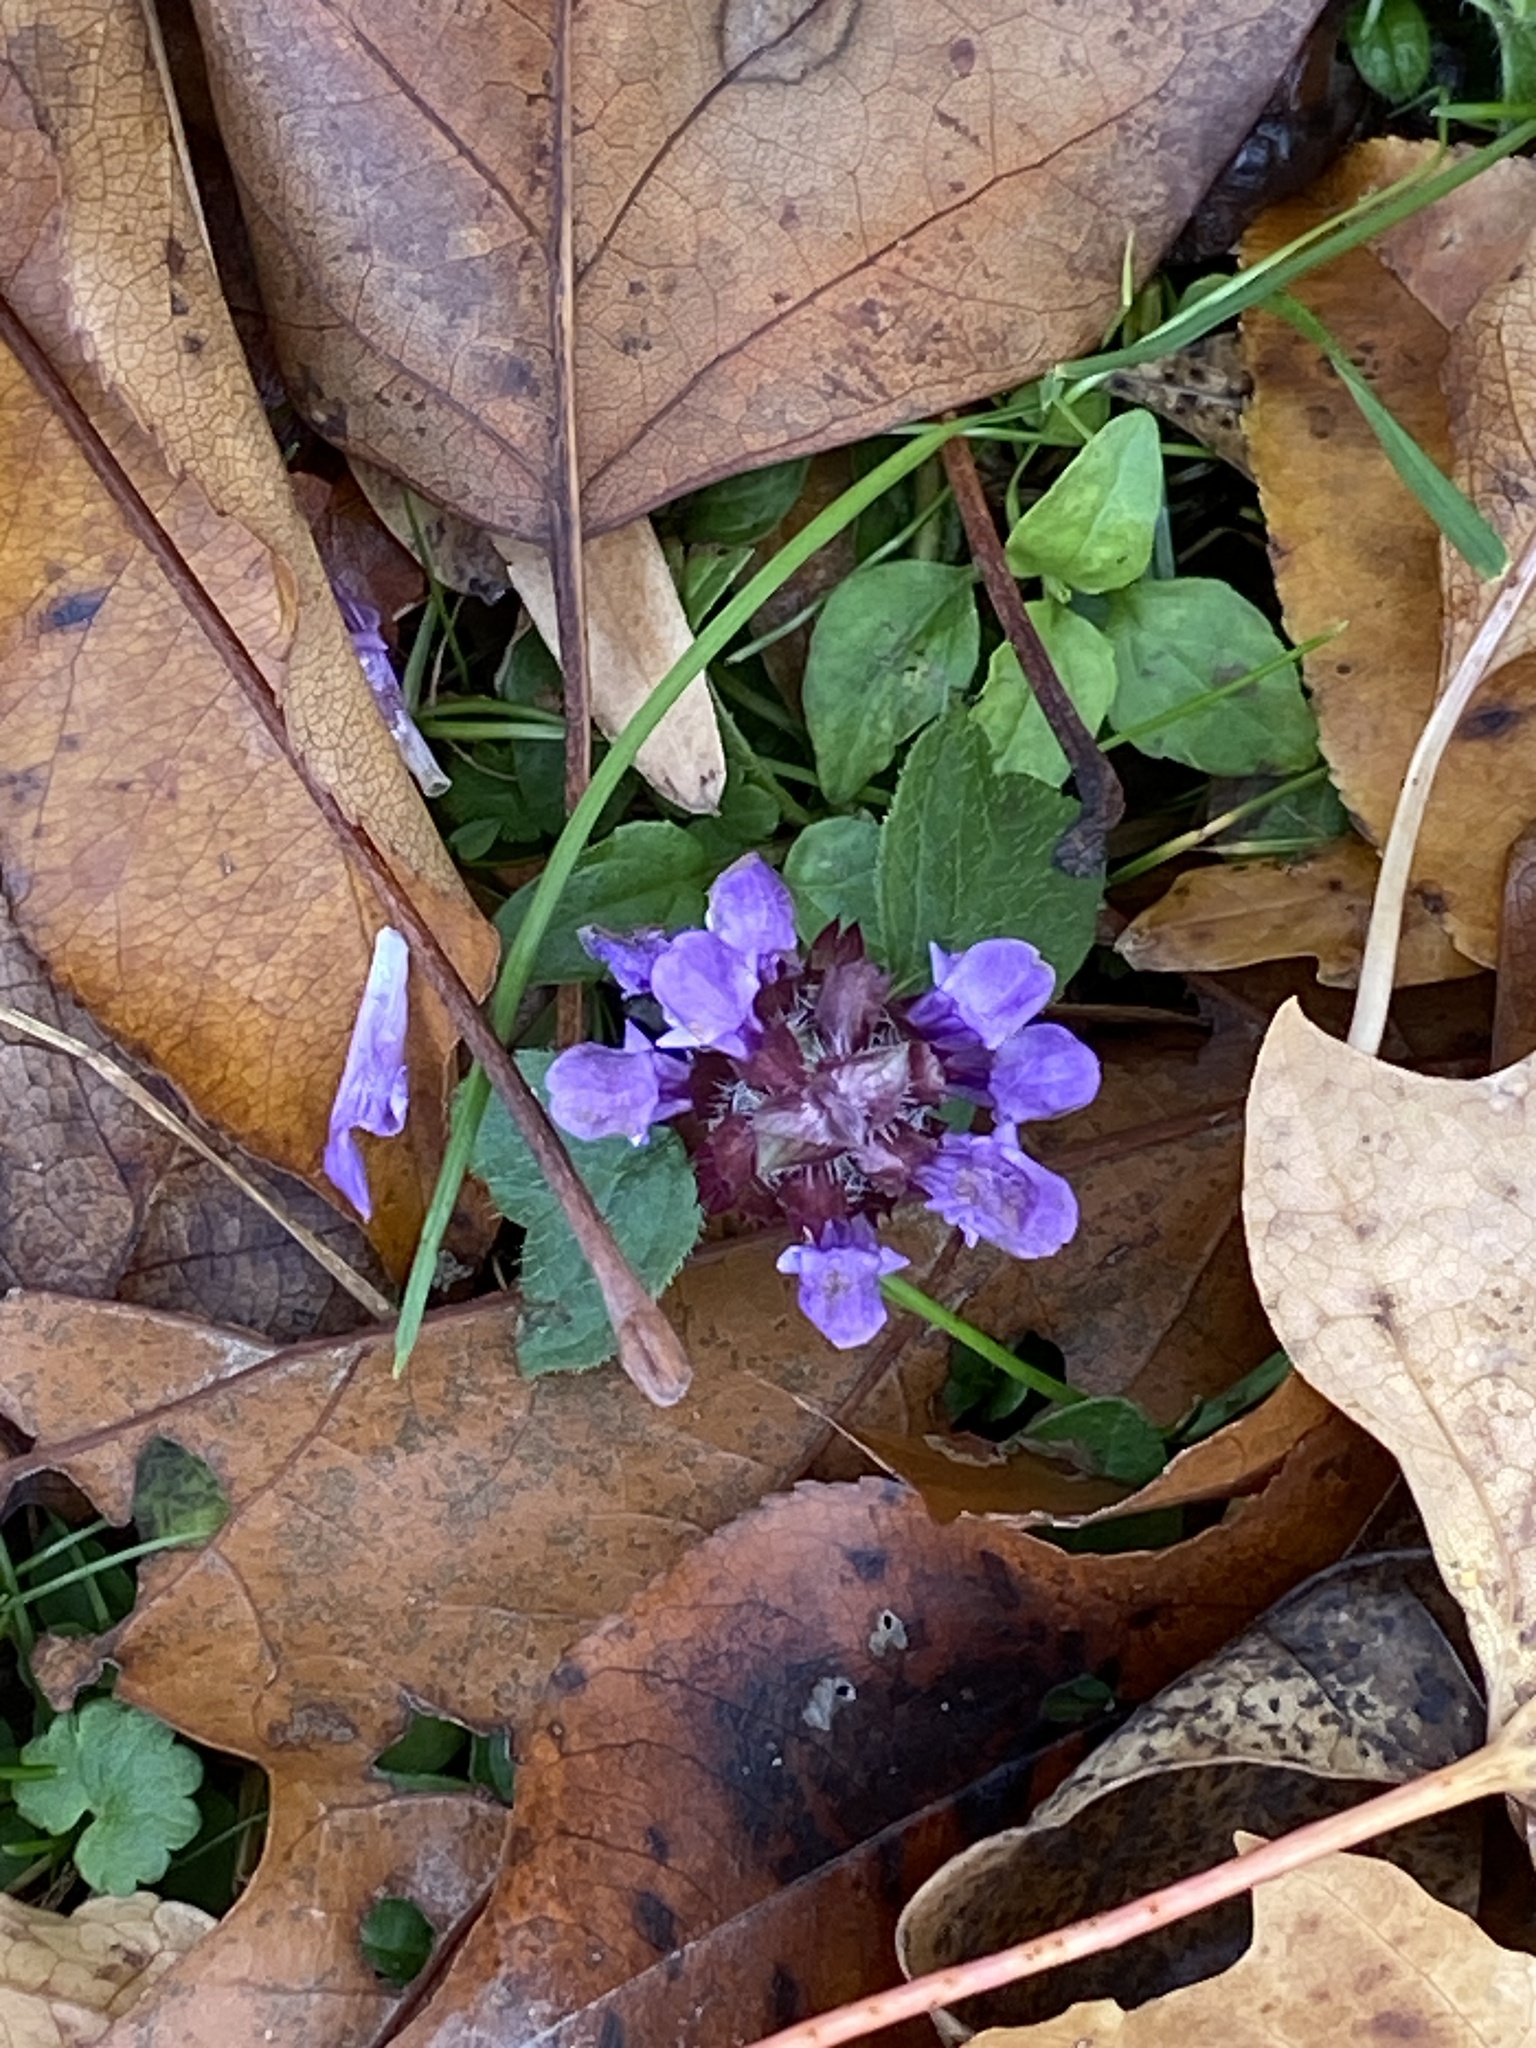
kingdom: Plantae
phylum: Tracheophyta
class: Magnoliopsida
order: Lamiales
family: Lamiaceae
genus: Prunella
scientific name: Prunella vulgaris
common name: Heal-all
